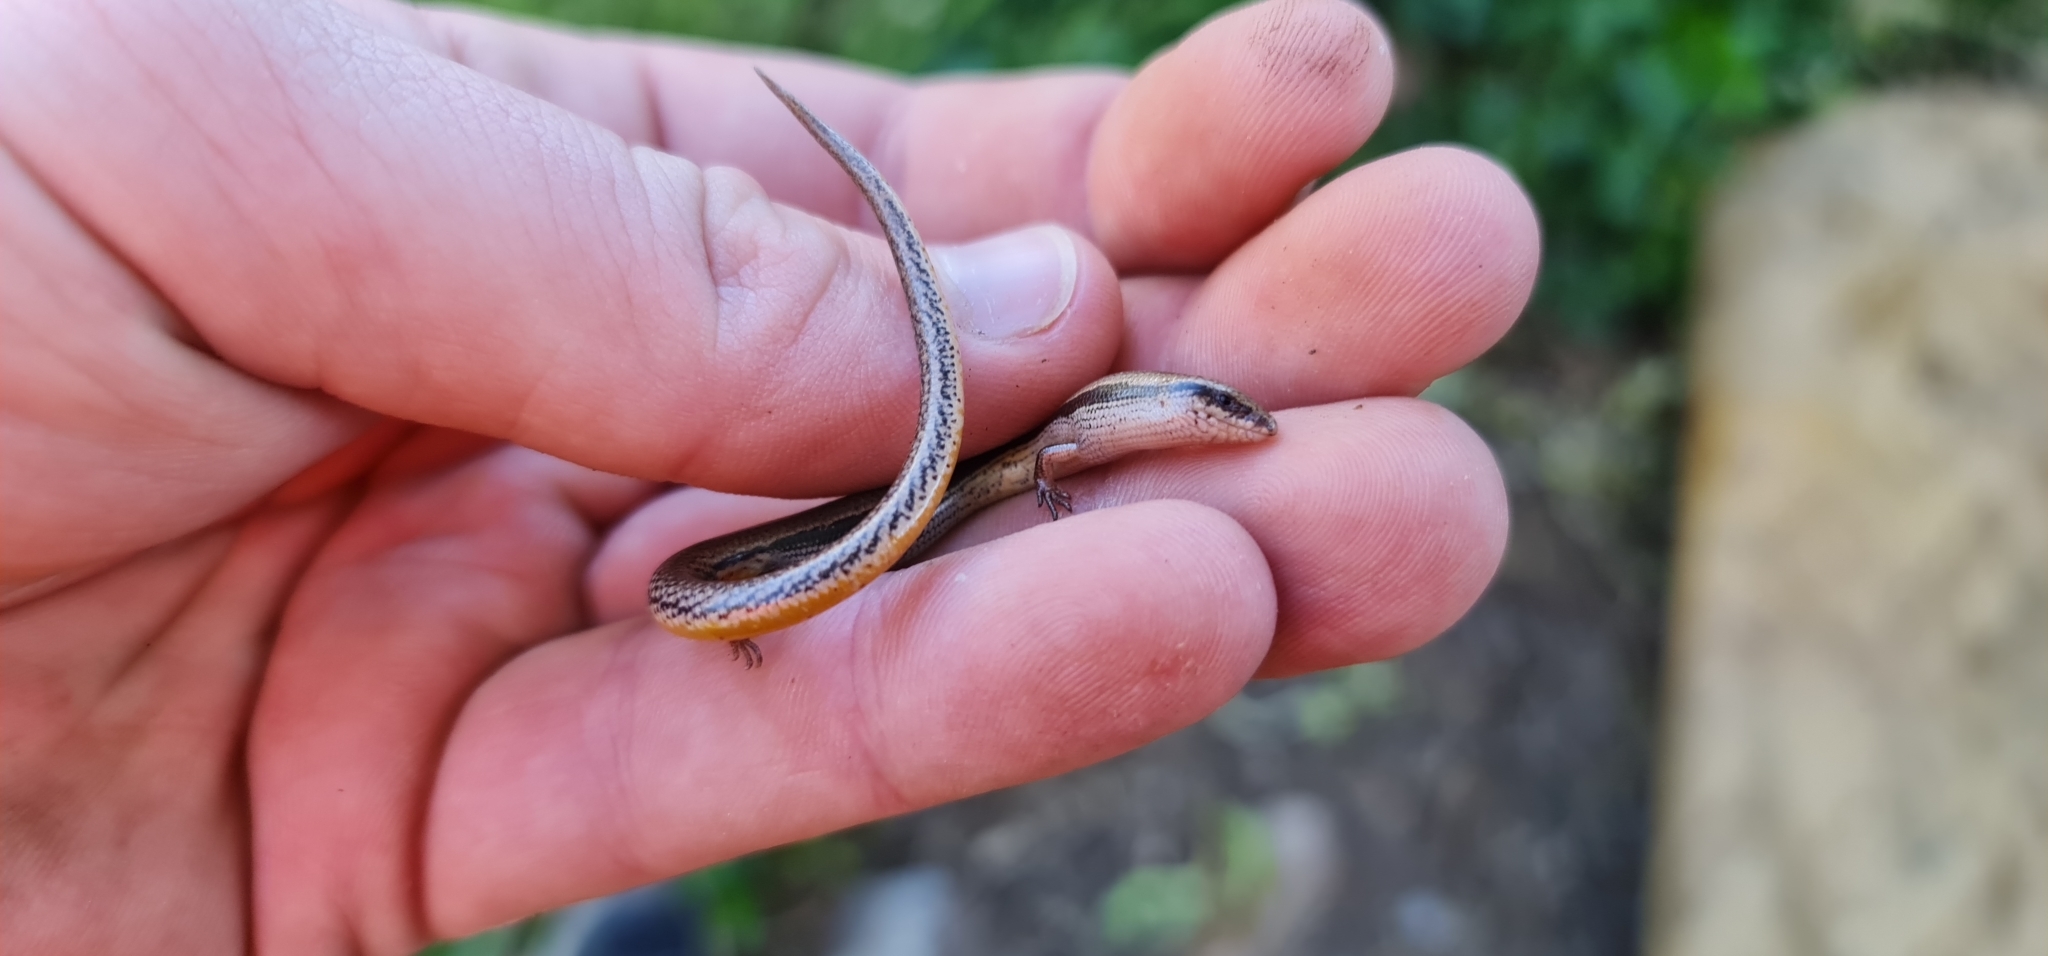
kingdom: Animalia
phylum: Chordata
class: Squamata
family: Scincidae
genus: Lerista
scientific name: Lerista bougainvillii
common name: South-eastern slider
